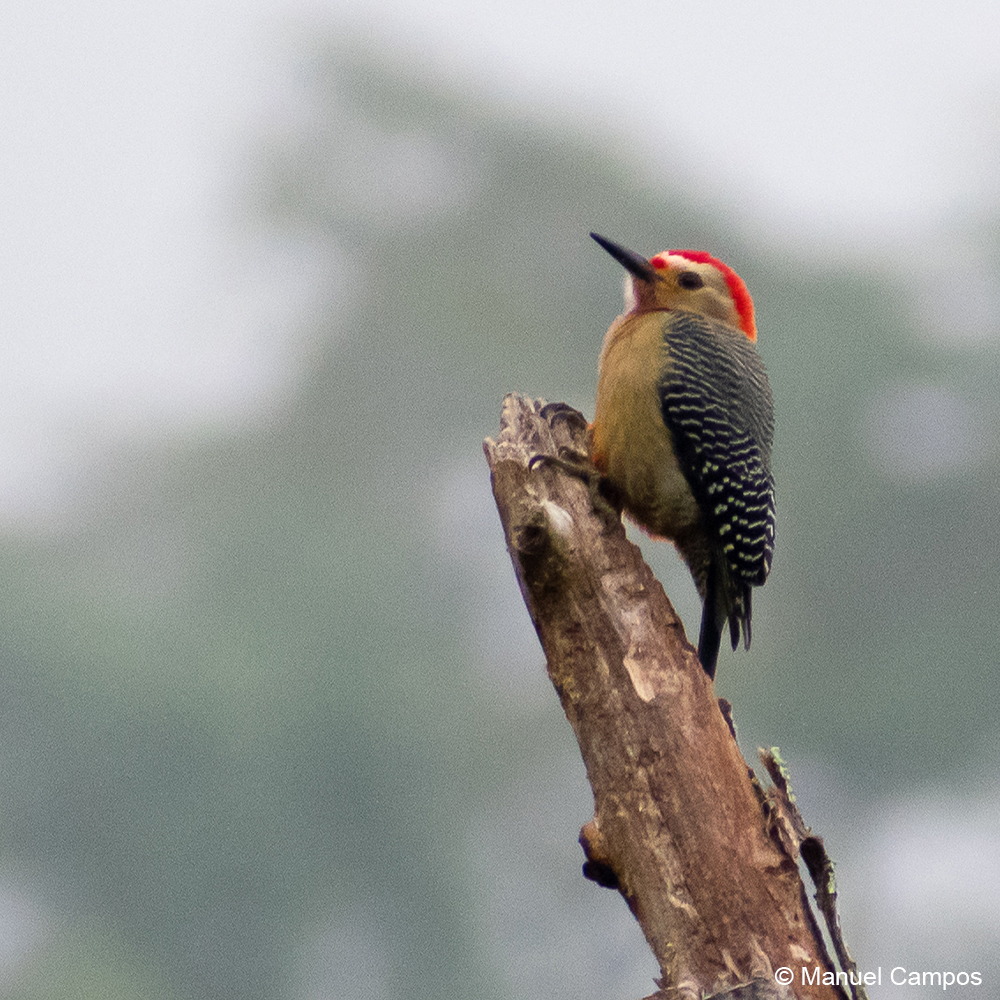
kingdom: Animalia
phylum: Chordata
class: Aves
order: Piciformes
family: Picidae
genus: Melanerpes
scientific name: Melanerpes aurifrons
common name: Golden-fronted woodpecker
